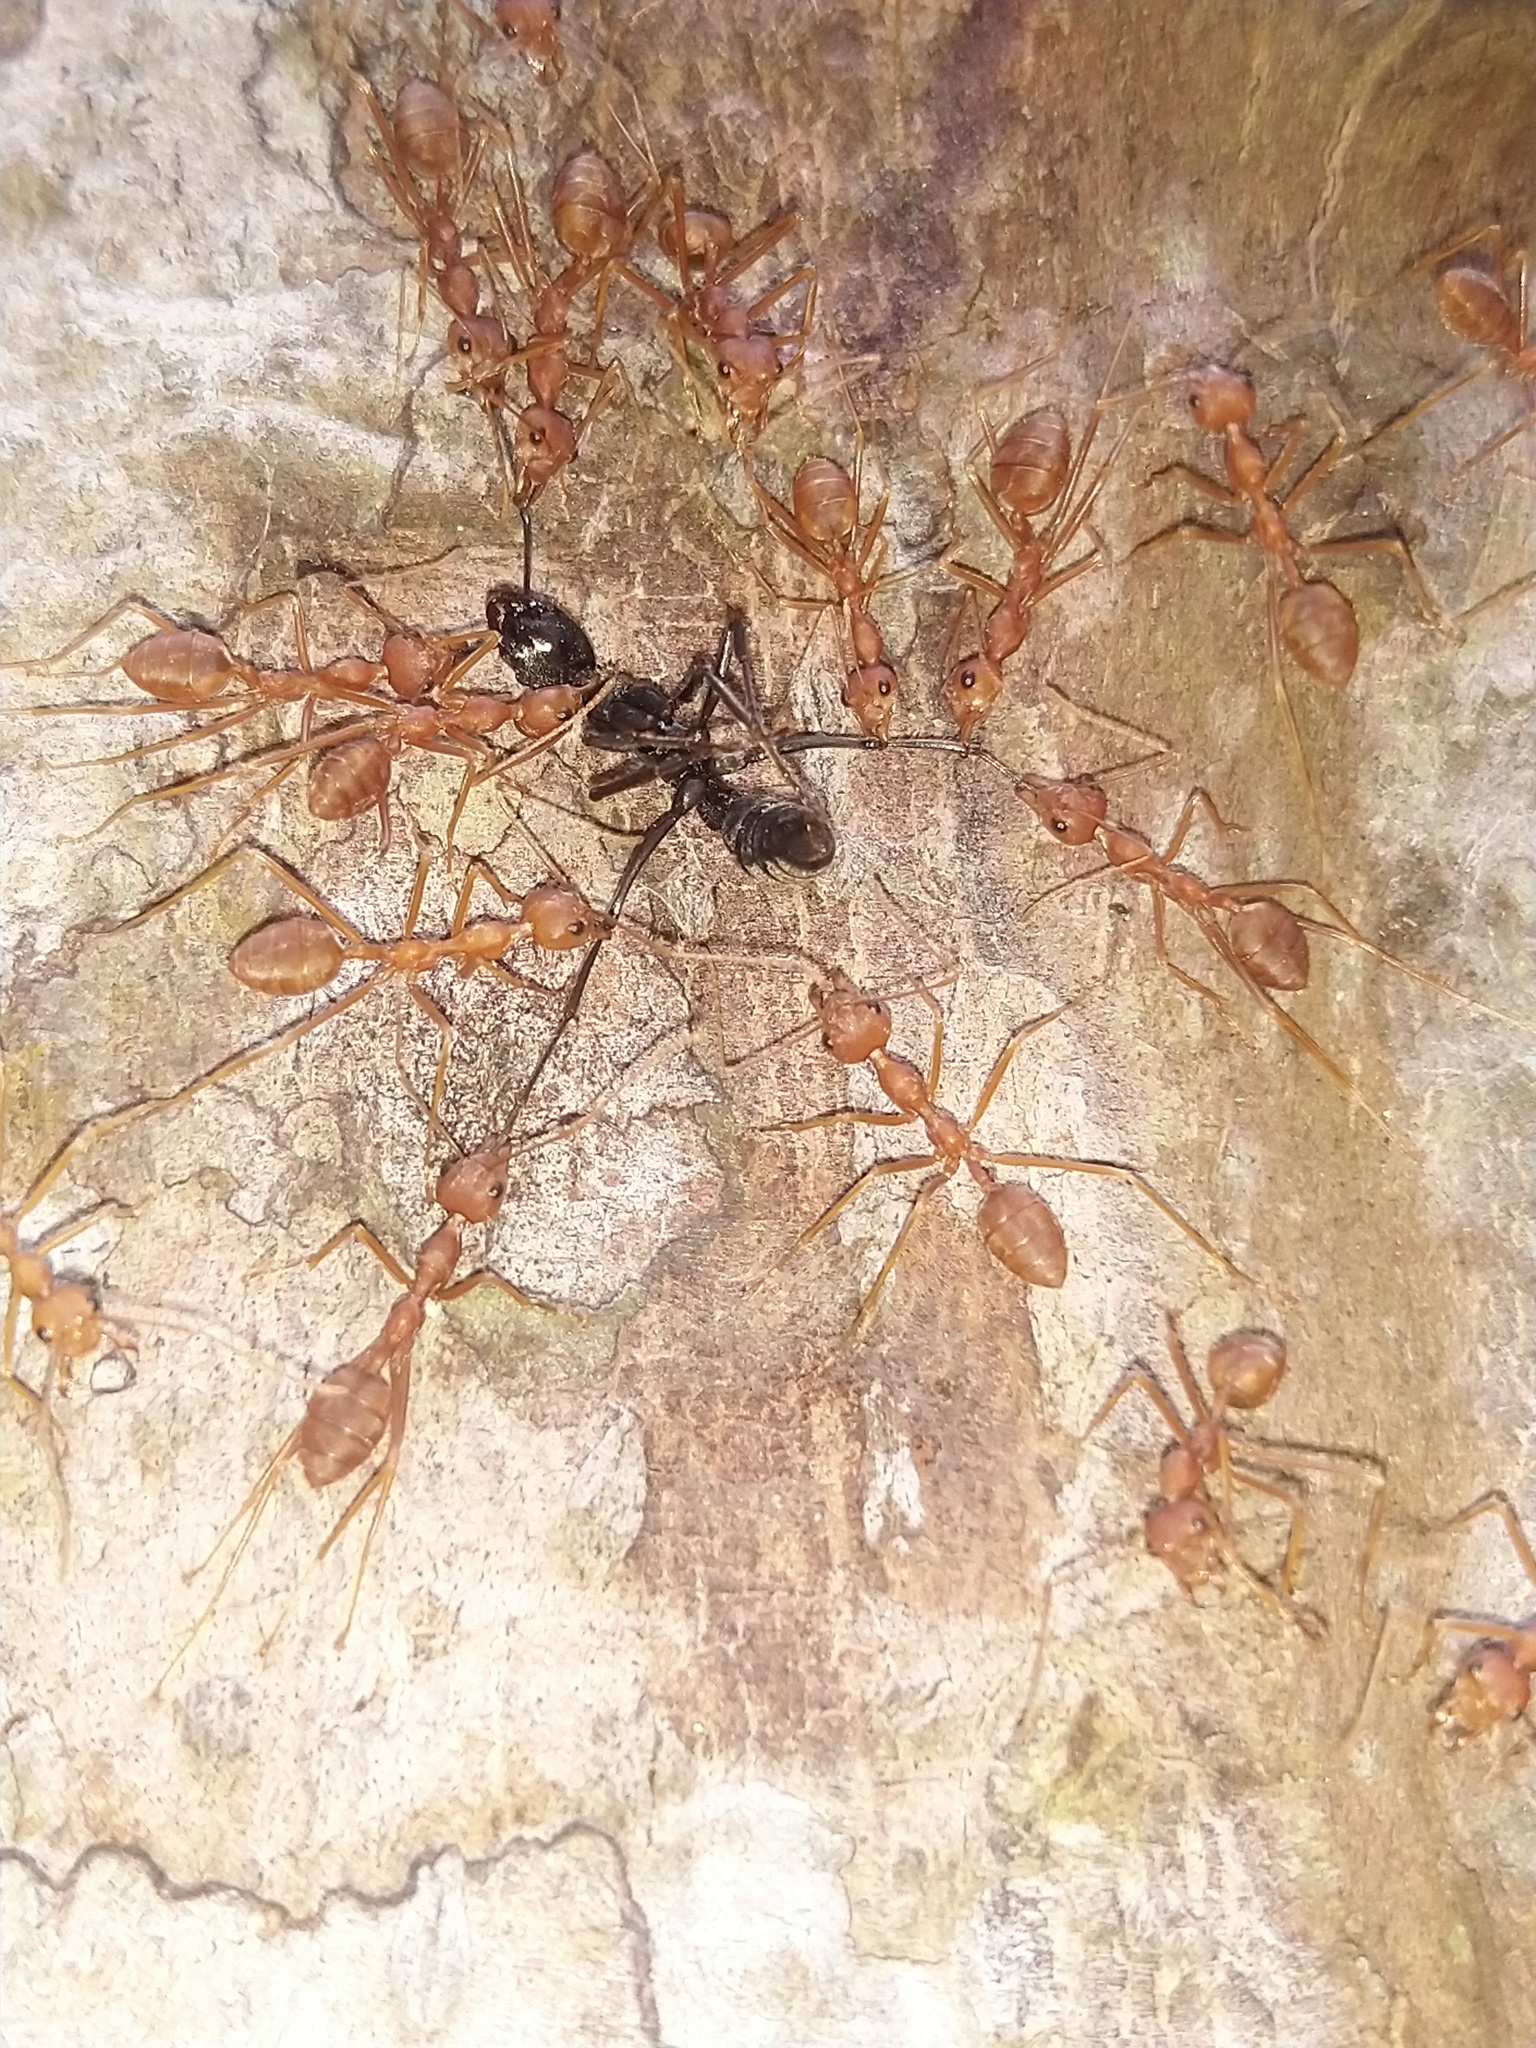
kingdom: Animalia
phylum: Arthropoda
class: Insecta
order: Hymenoptera
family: Formicidae
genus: Oecophylla
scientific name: Oecophylla smaragdina
